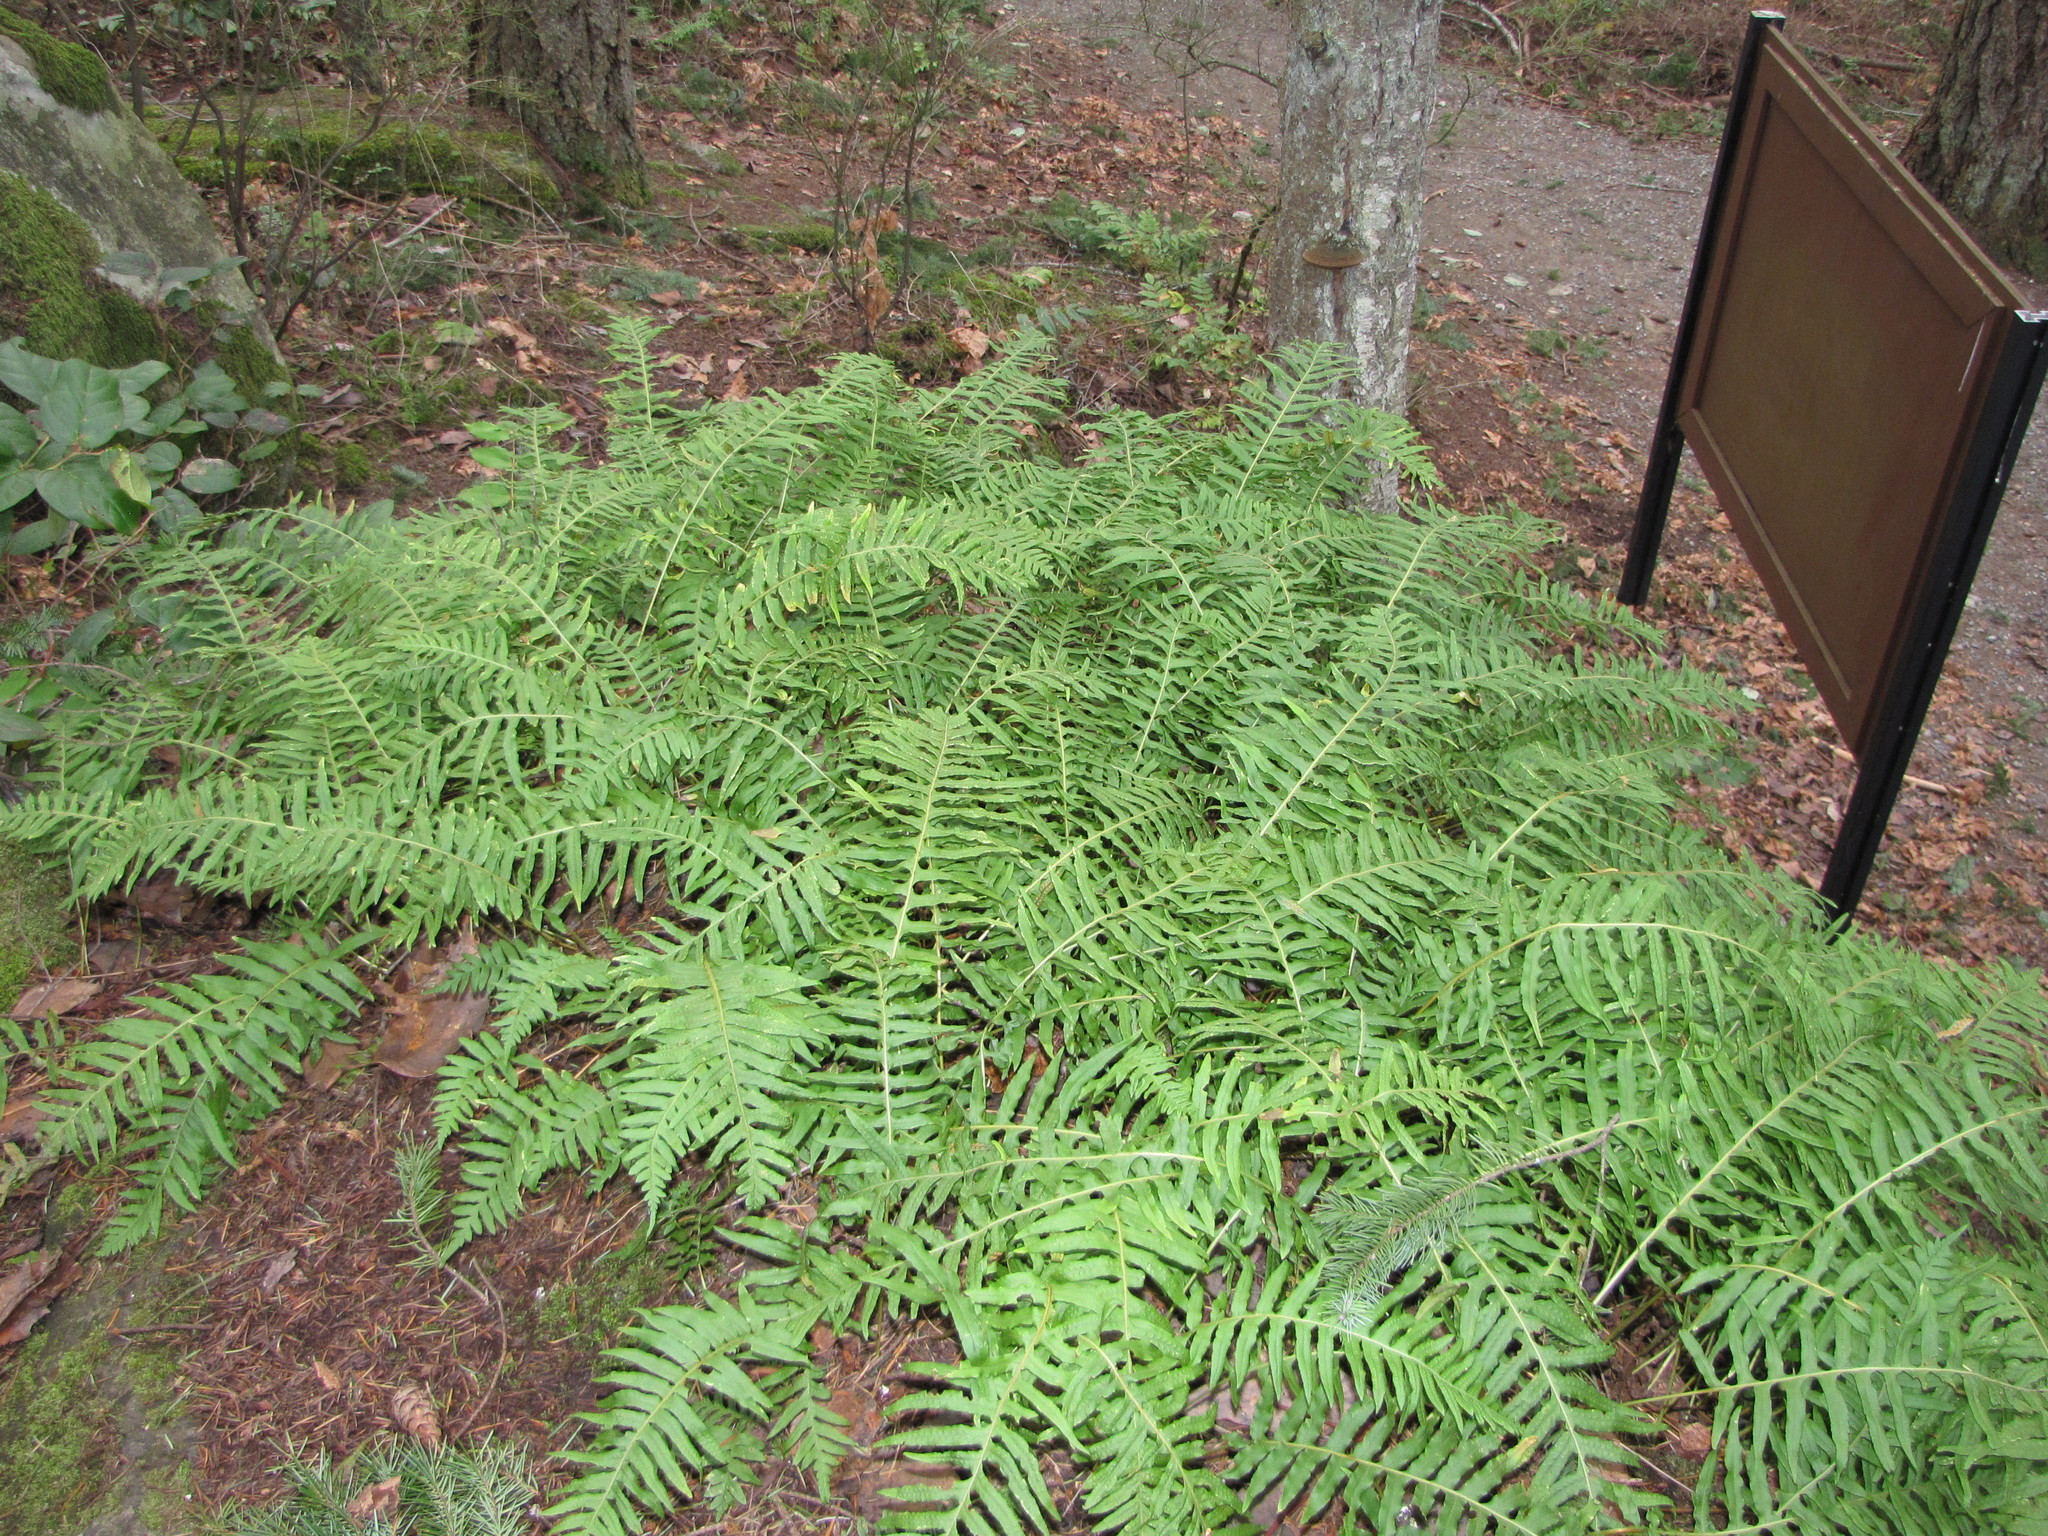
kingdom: Plantae
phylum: Tracheophyta
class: Polypodiopsida
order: Polypodiales
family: Polypodiaceae
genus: Polypodium
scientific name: Polypodium glycyrrhiza
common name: Licorice fern
